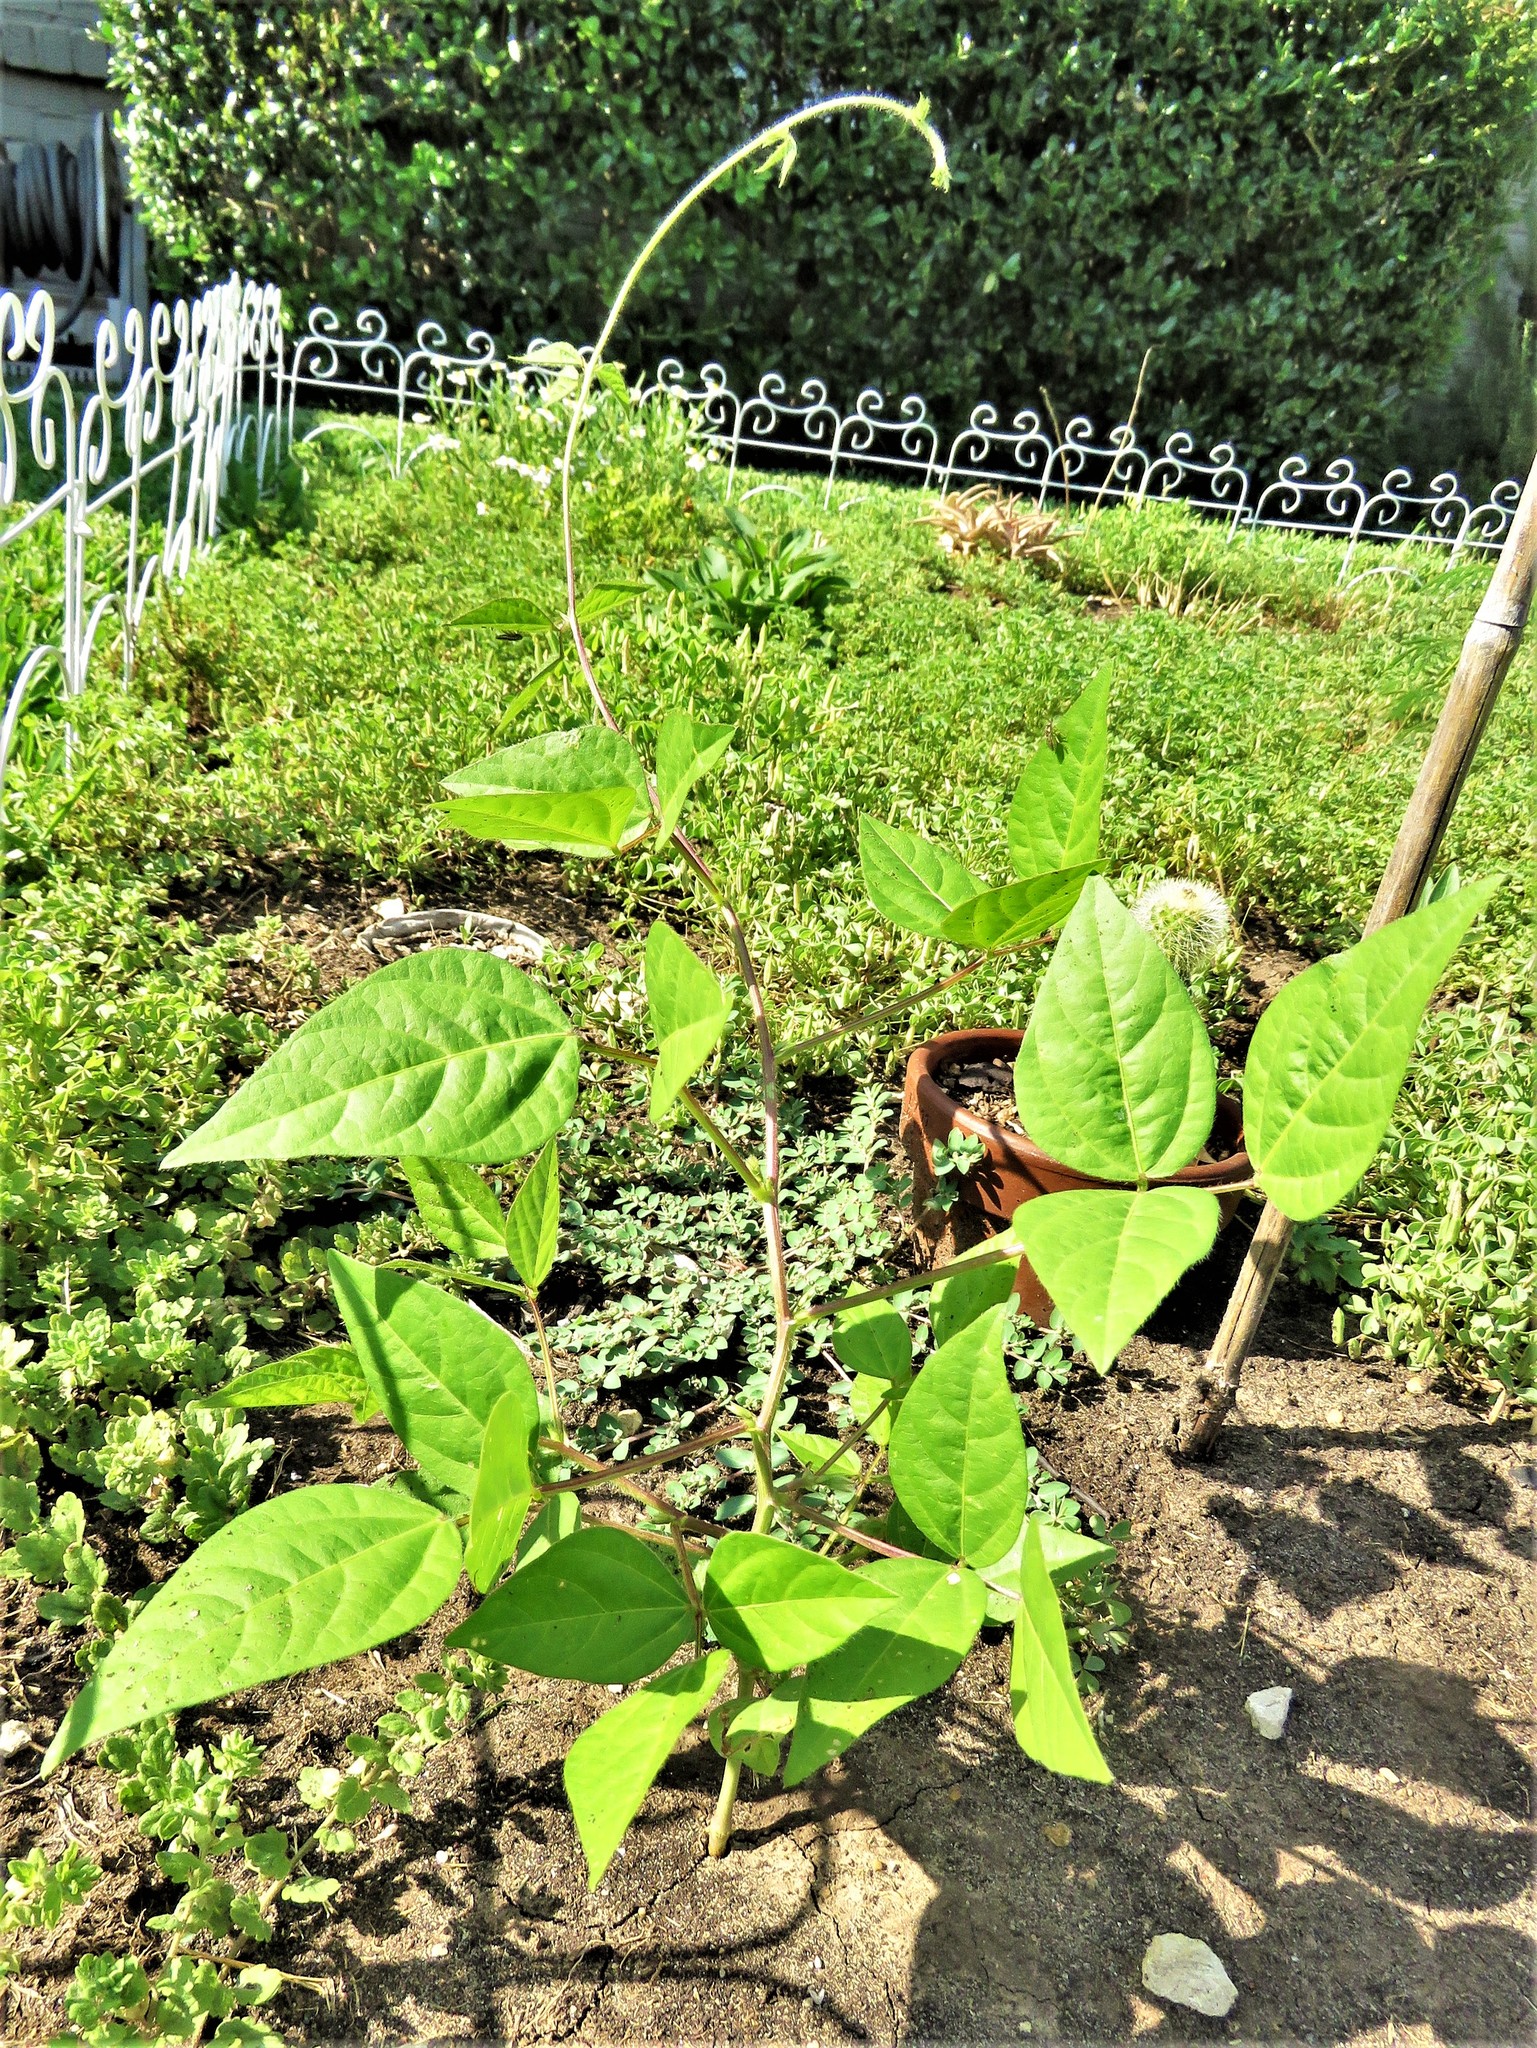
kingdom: Plantae
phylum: Tracheophyta
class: Magnoliopsida
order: Fabales
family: Fabaceae
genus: Strophostyles
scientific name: Strophostyles helvola
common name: Trailing wild bean
